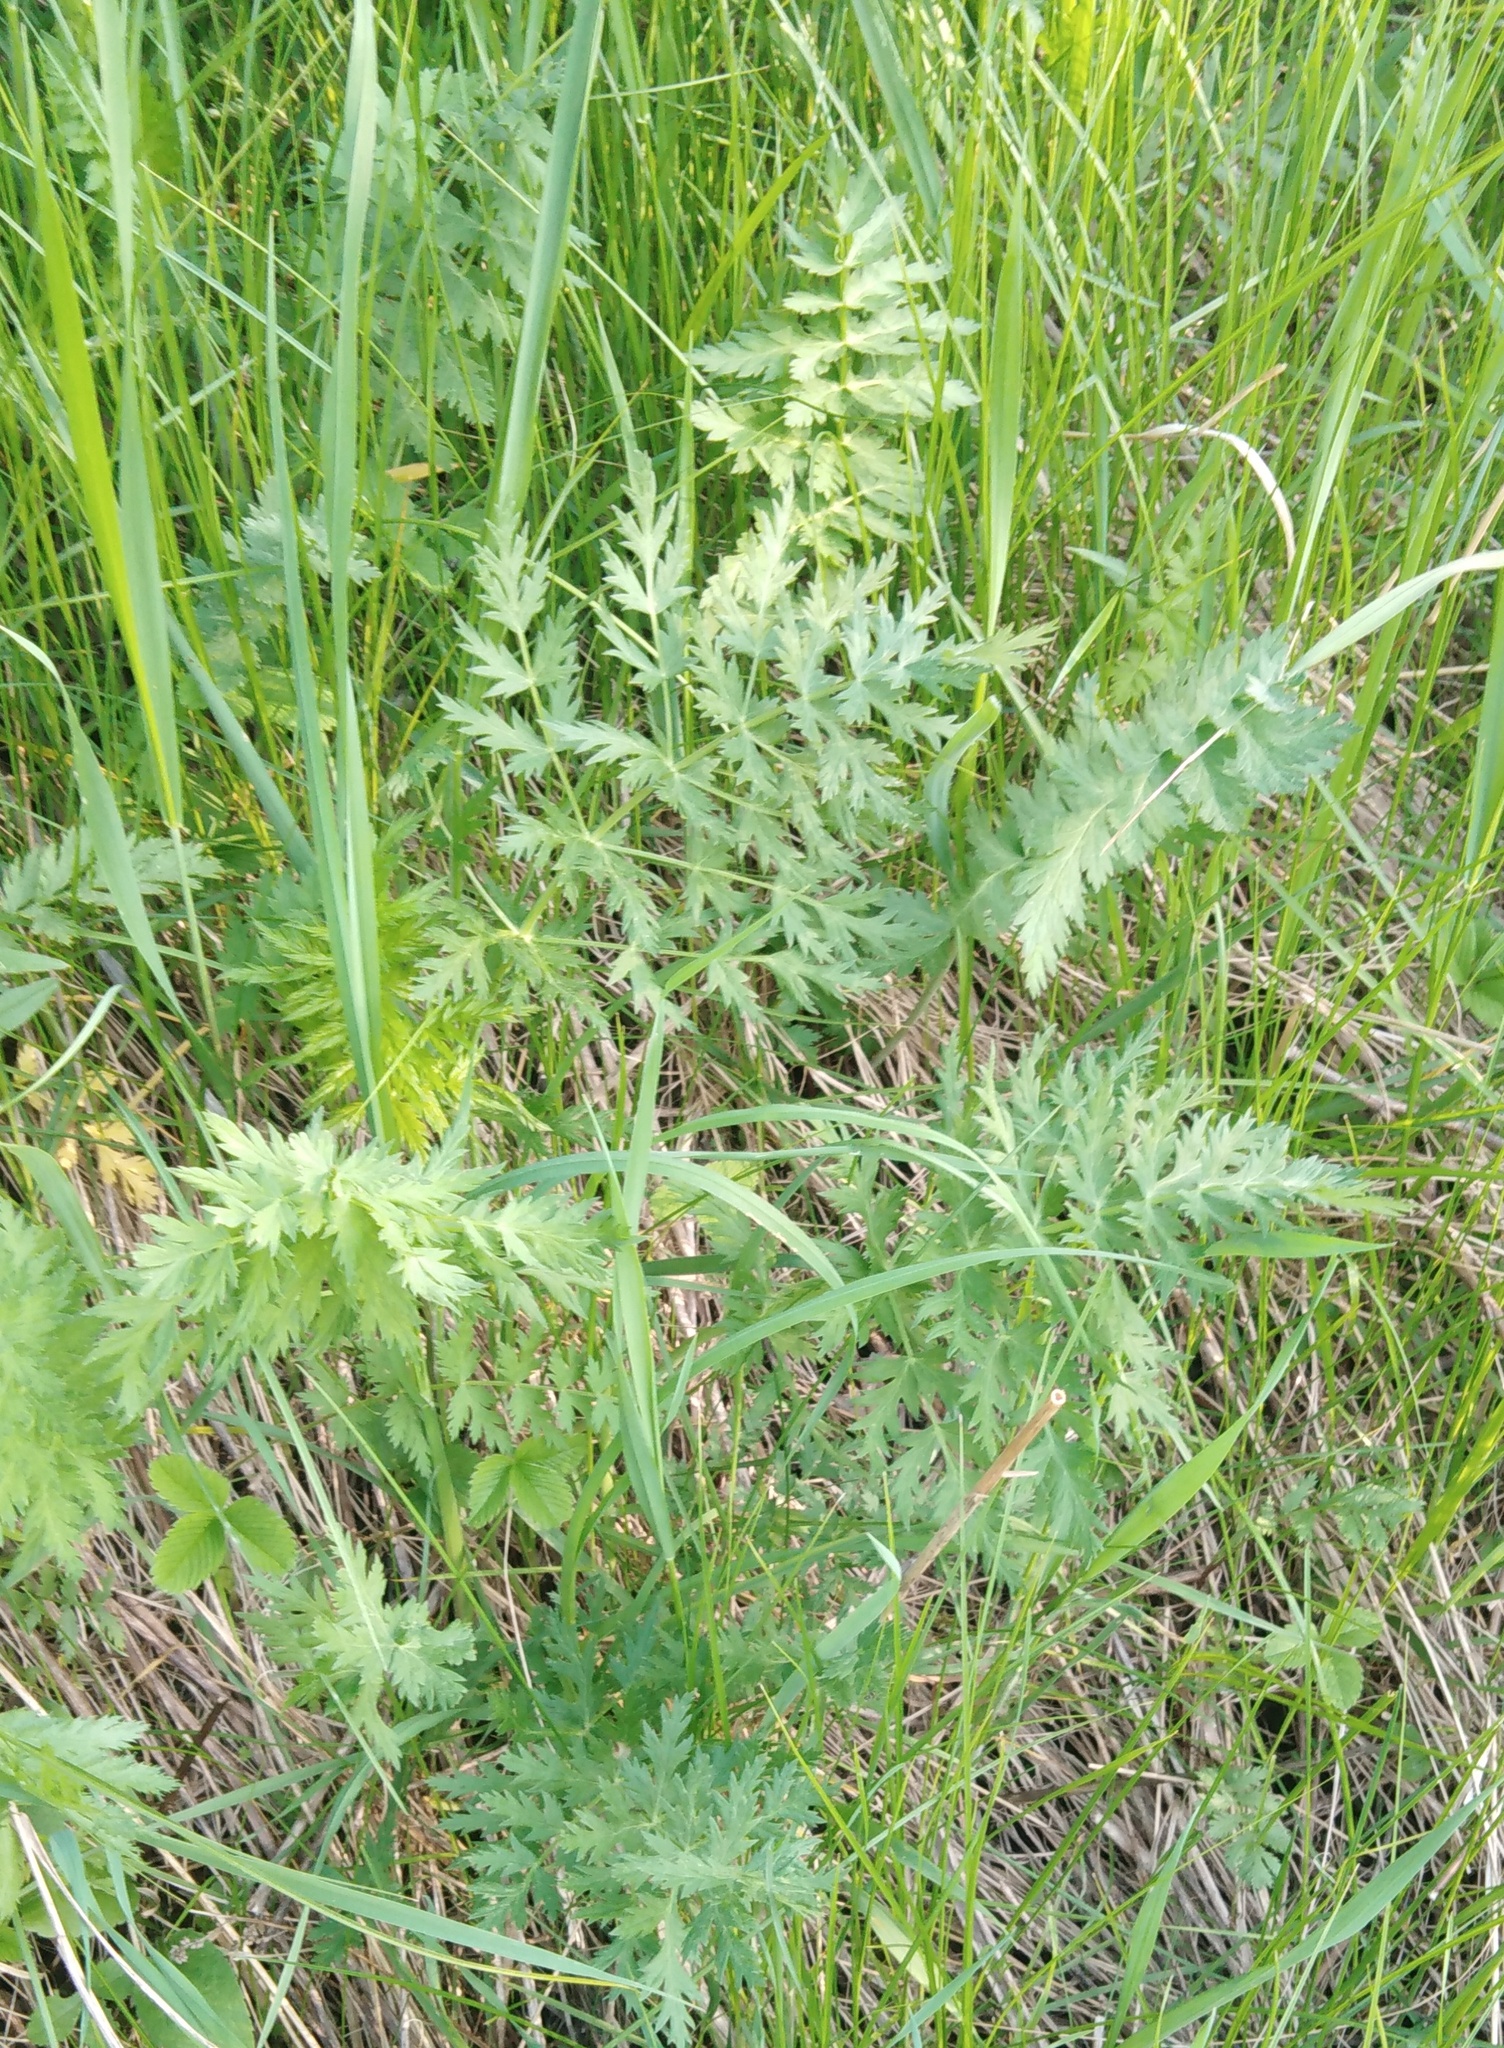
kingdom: Plantae
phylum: Tracheophyta
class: Magnoliopsida
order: Apiales
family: Apiaceae
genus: Seseli
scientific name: Seseli libanotis
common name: Mooncarrot
